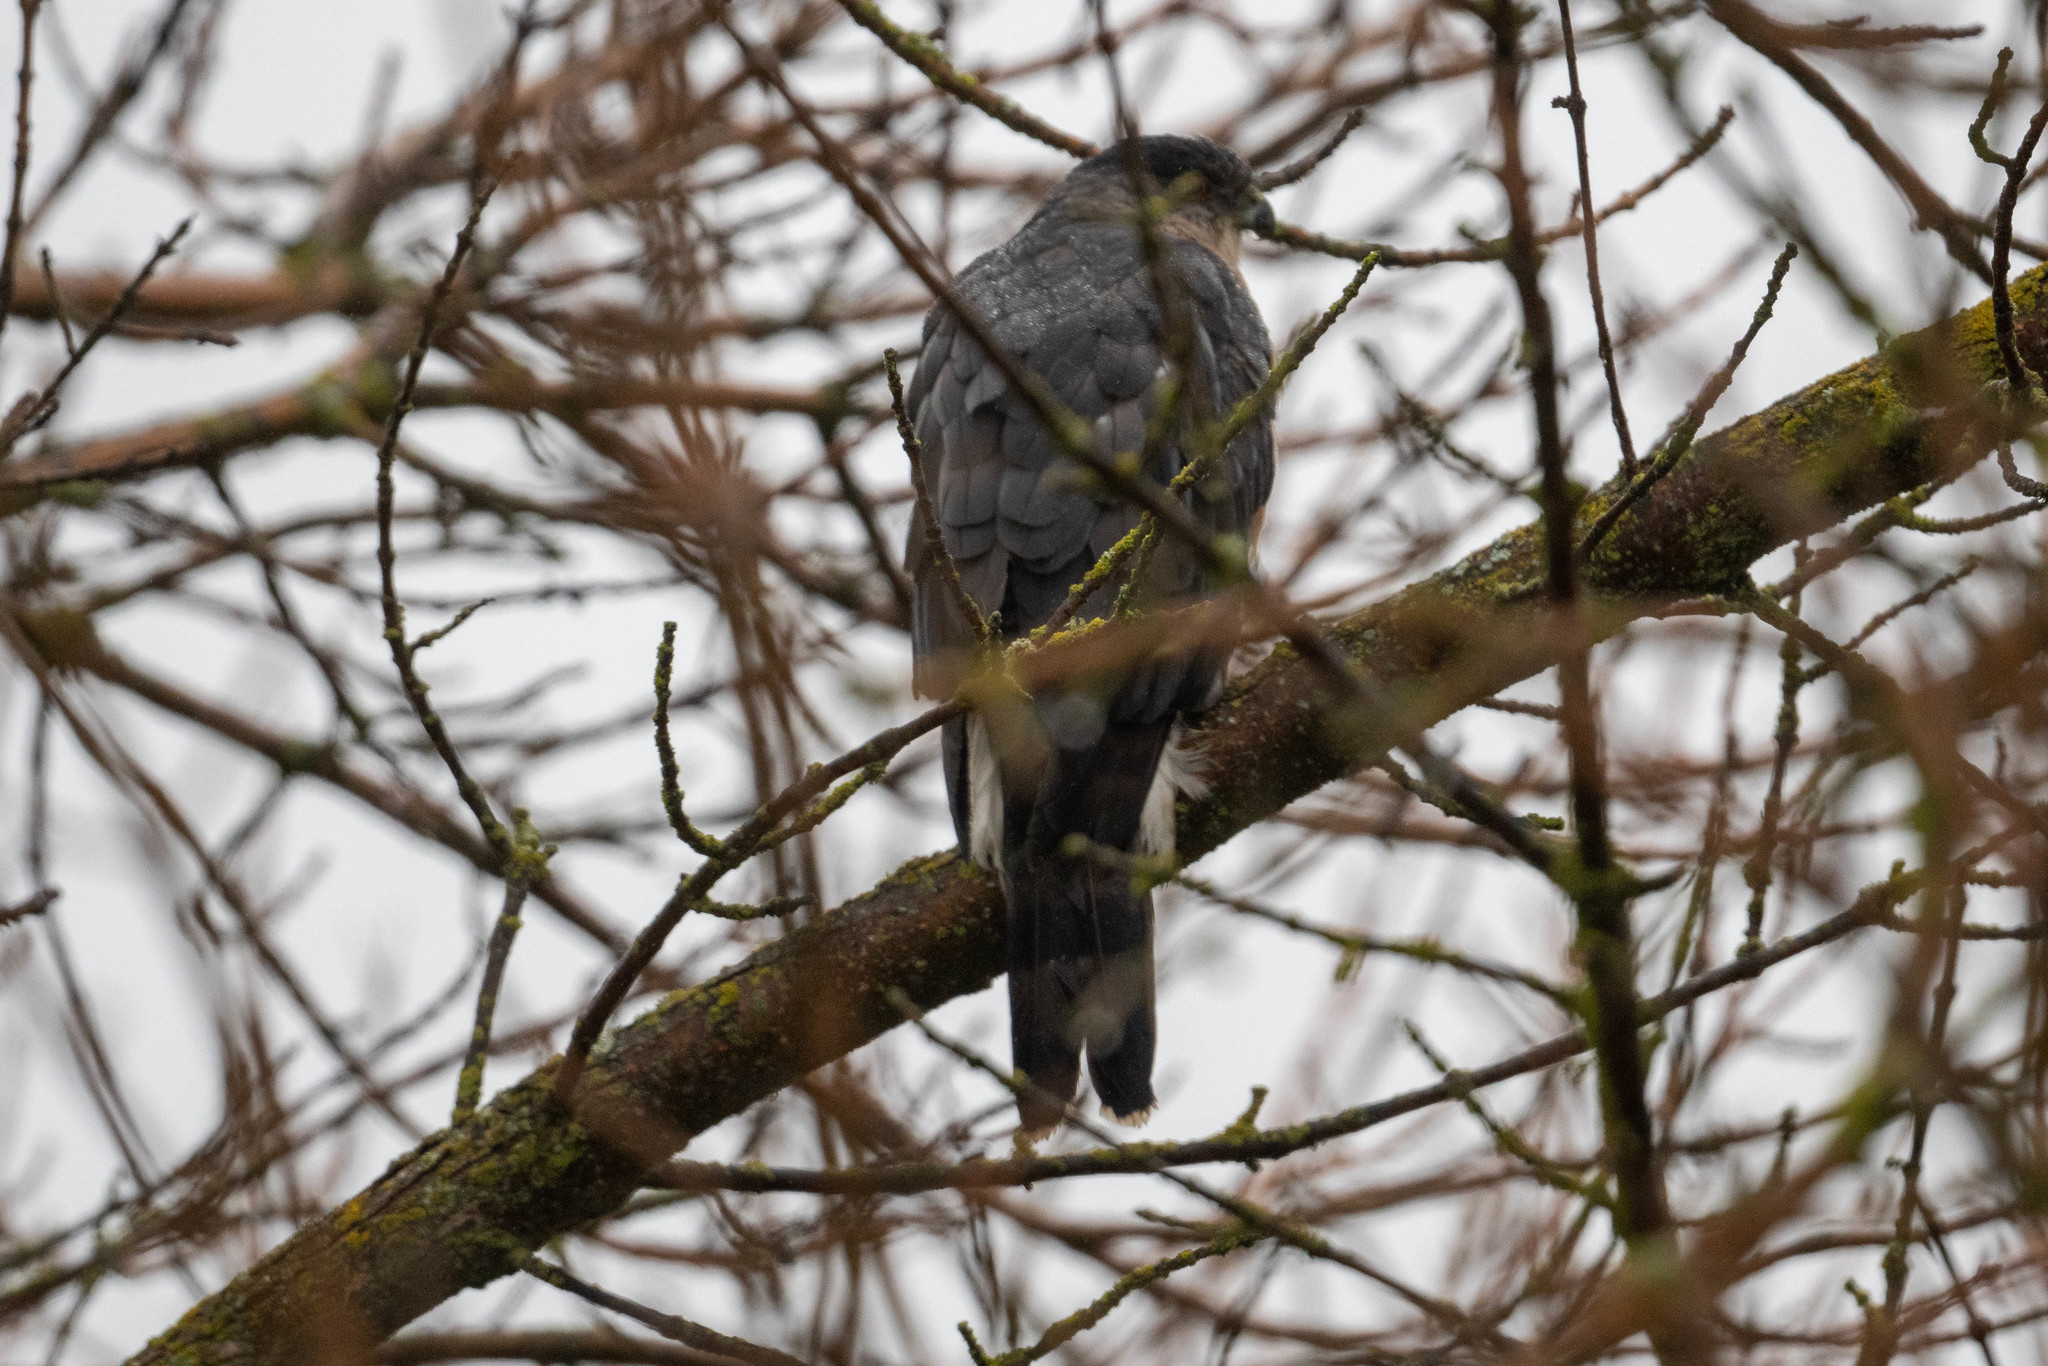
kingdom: Animalia
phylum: Chordata
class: Aves
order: Accipitriformes
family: Accipitridae
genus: Accipiter
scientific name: Accipiter cooperii
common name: Cooper's hawk
